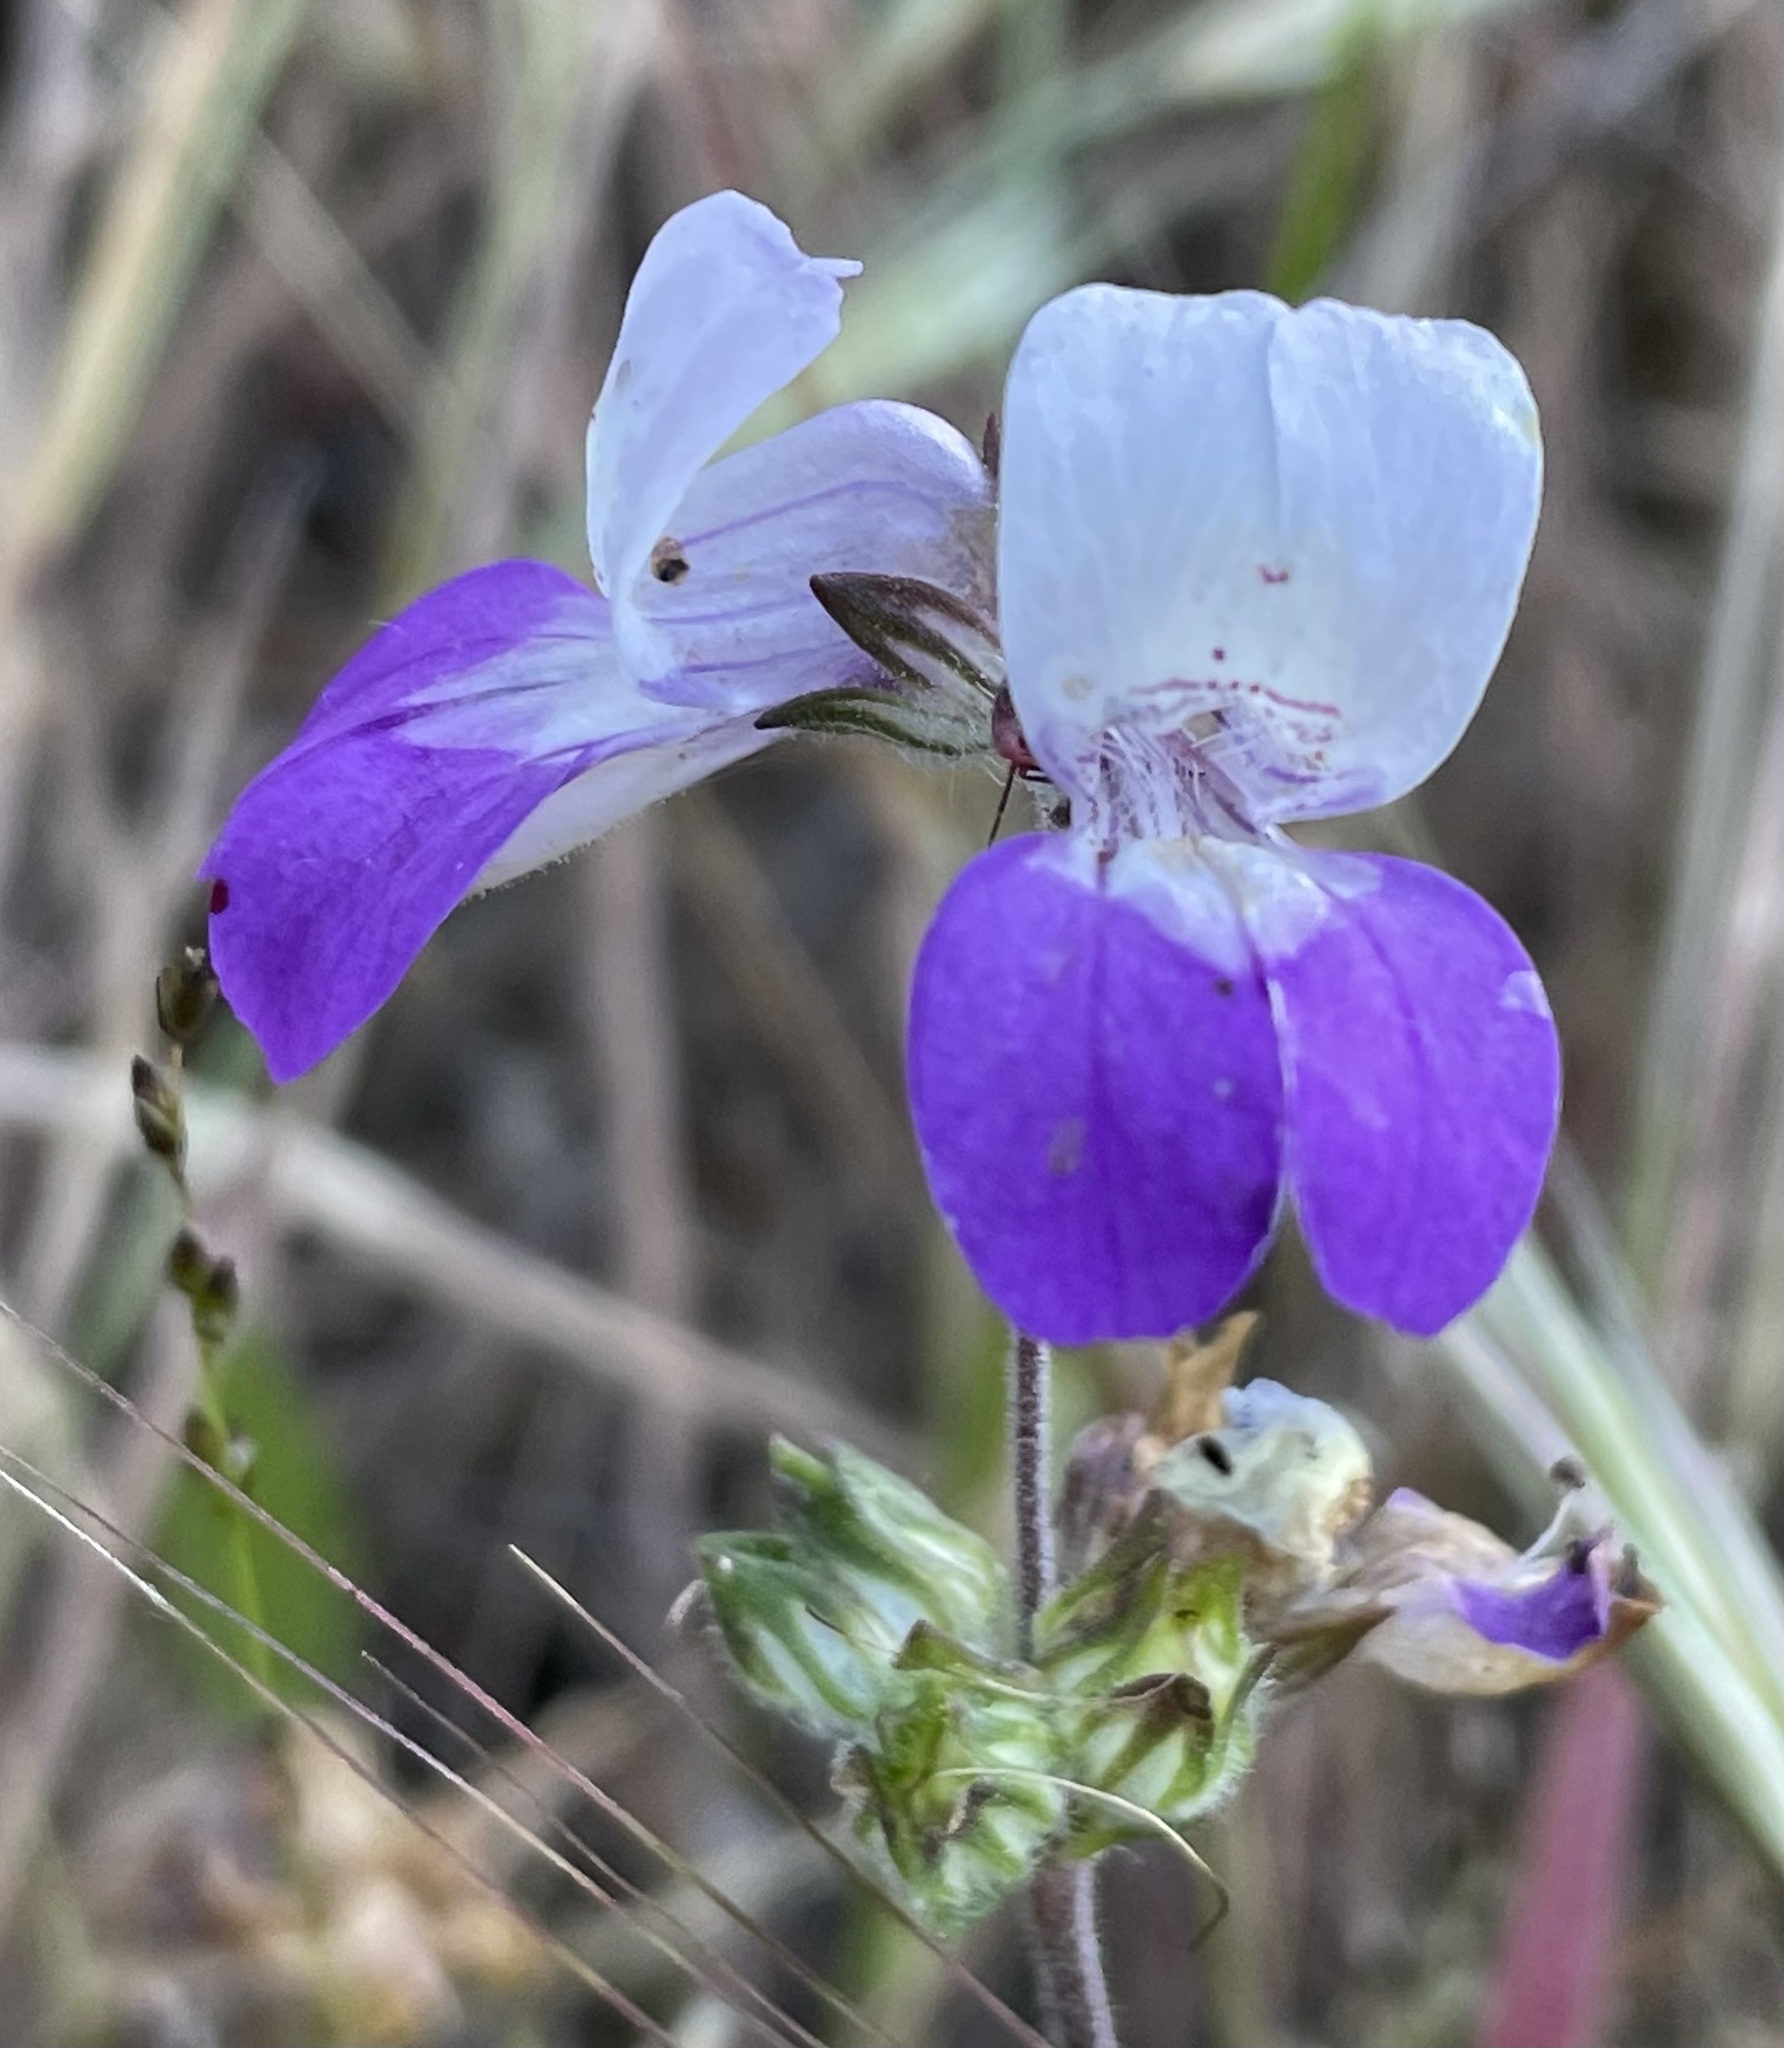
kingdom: Plantae
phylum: Tracheophyta
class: Magnoliopsida
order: Lamiales
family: Plantaginaceae
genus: Collinsia
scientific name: Collinsia heterophylla
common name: Chinese-houses
